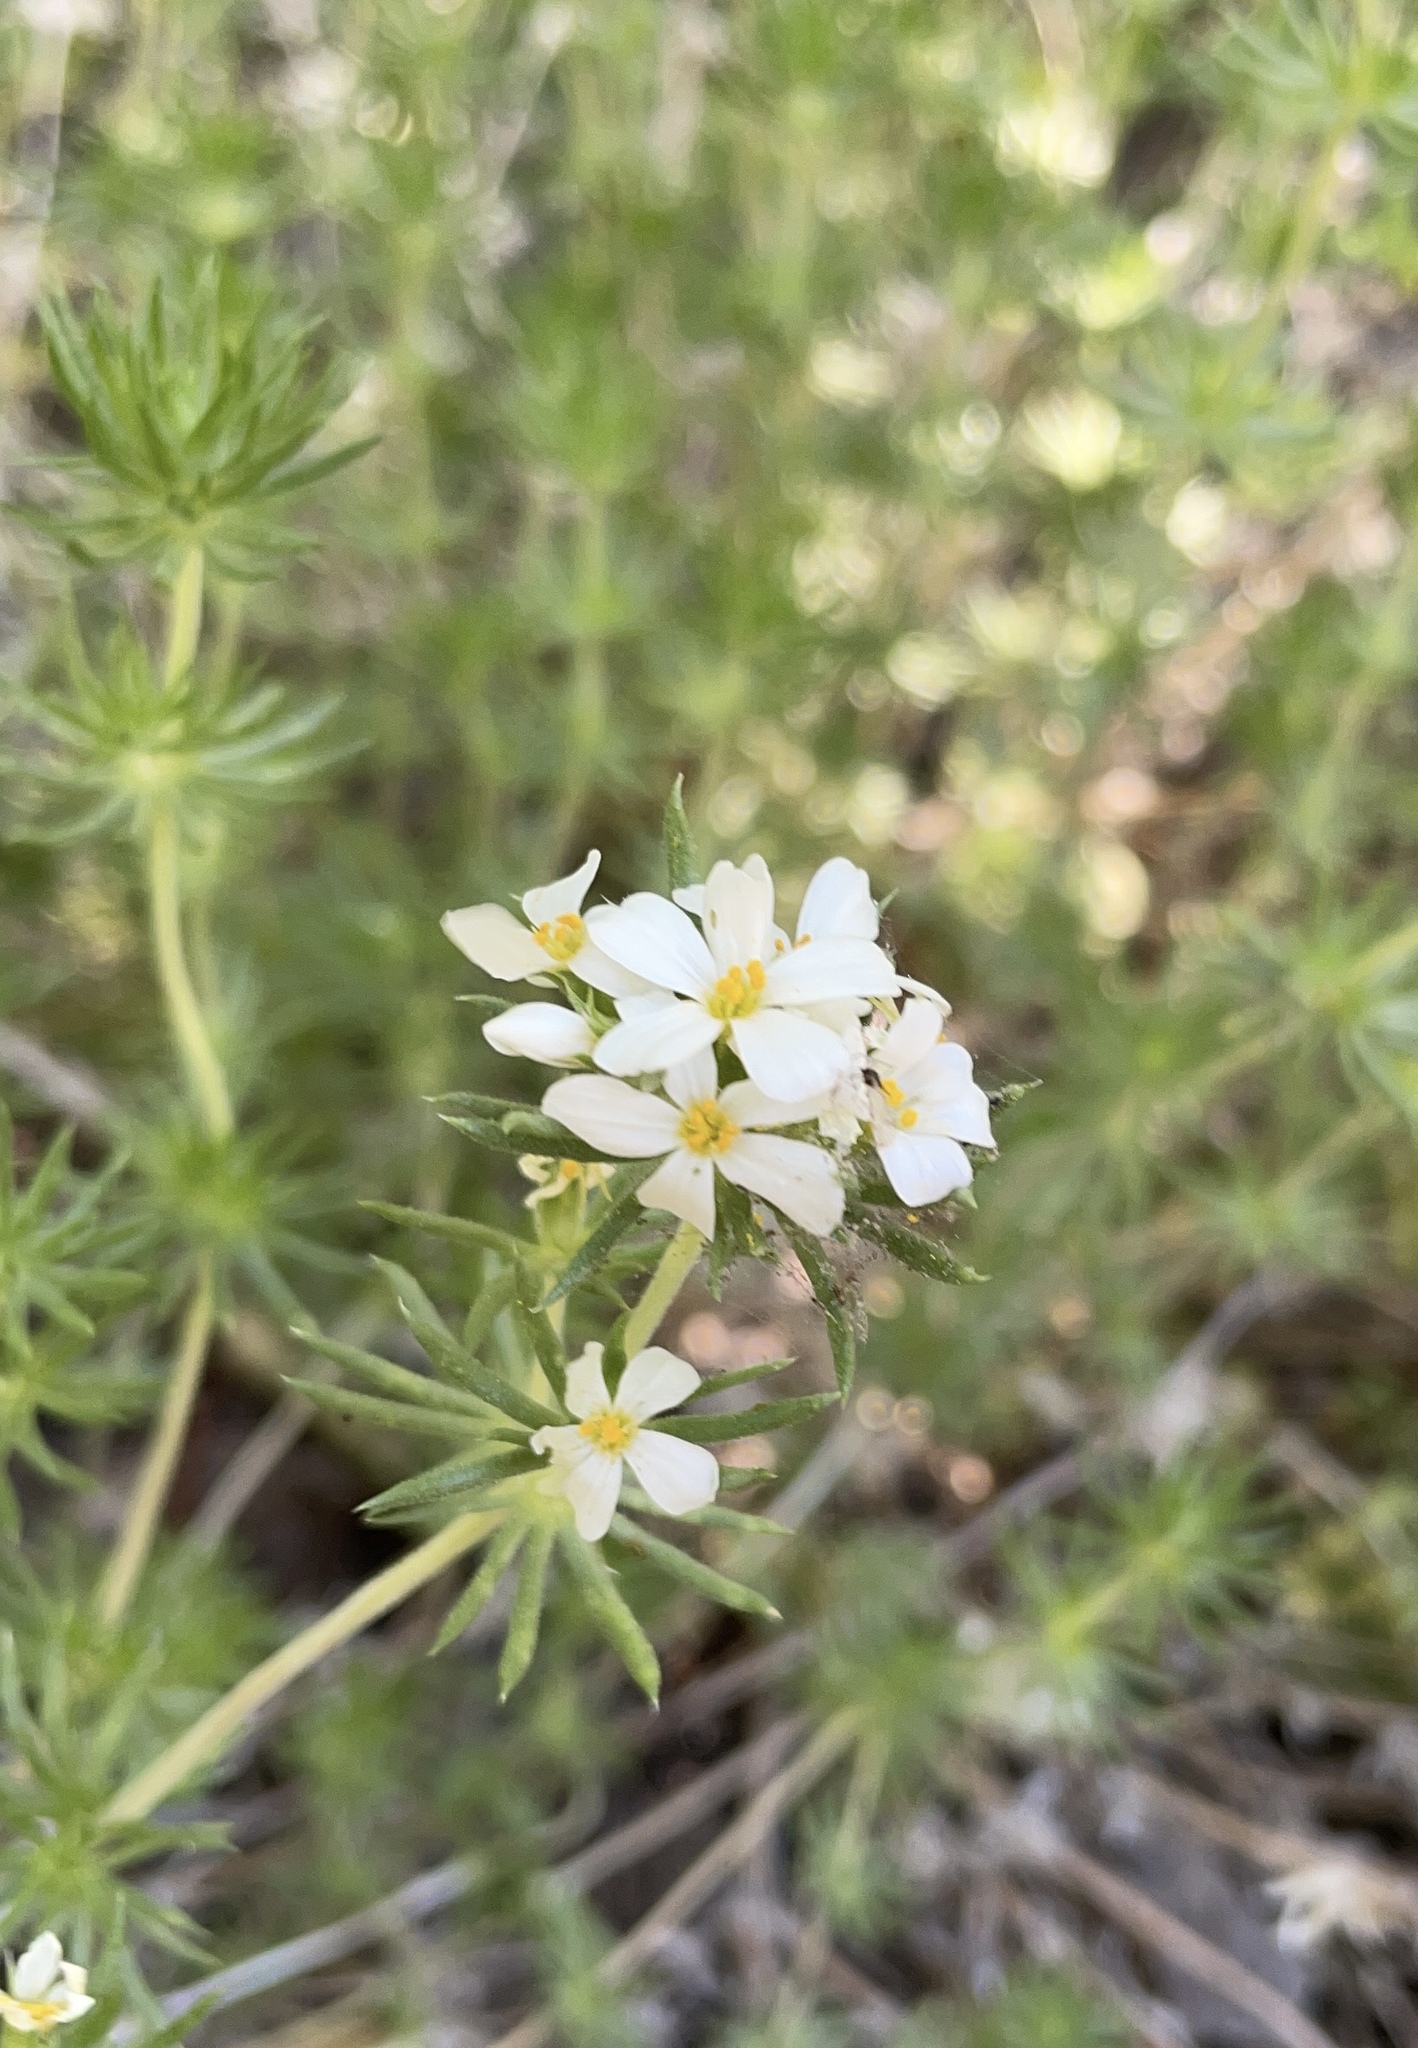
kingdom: Plantae
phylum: Tracheophyta
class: Magnoliopsida
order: Ericales
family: Polemoniaceae
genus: Leptosiphon
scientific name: Leptosiphon nuttallii
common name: Nuttall's linanthus
